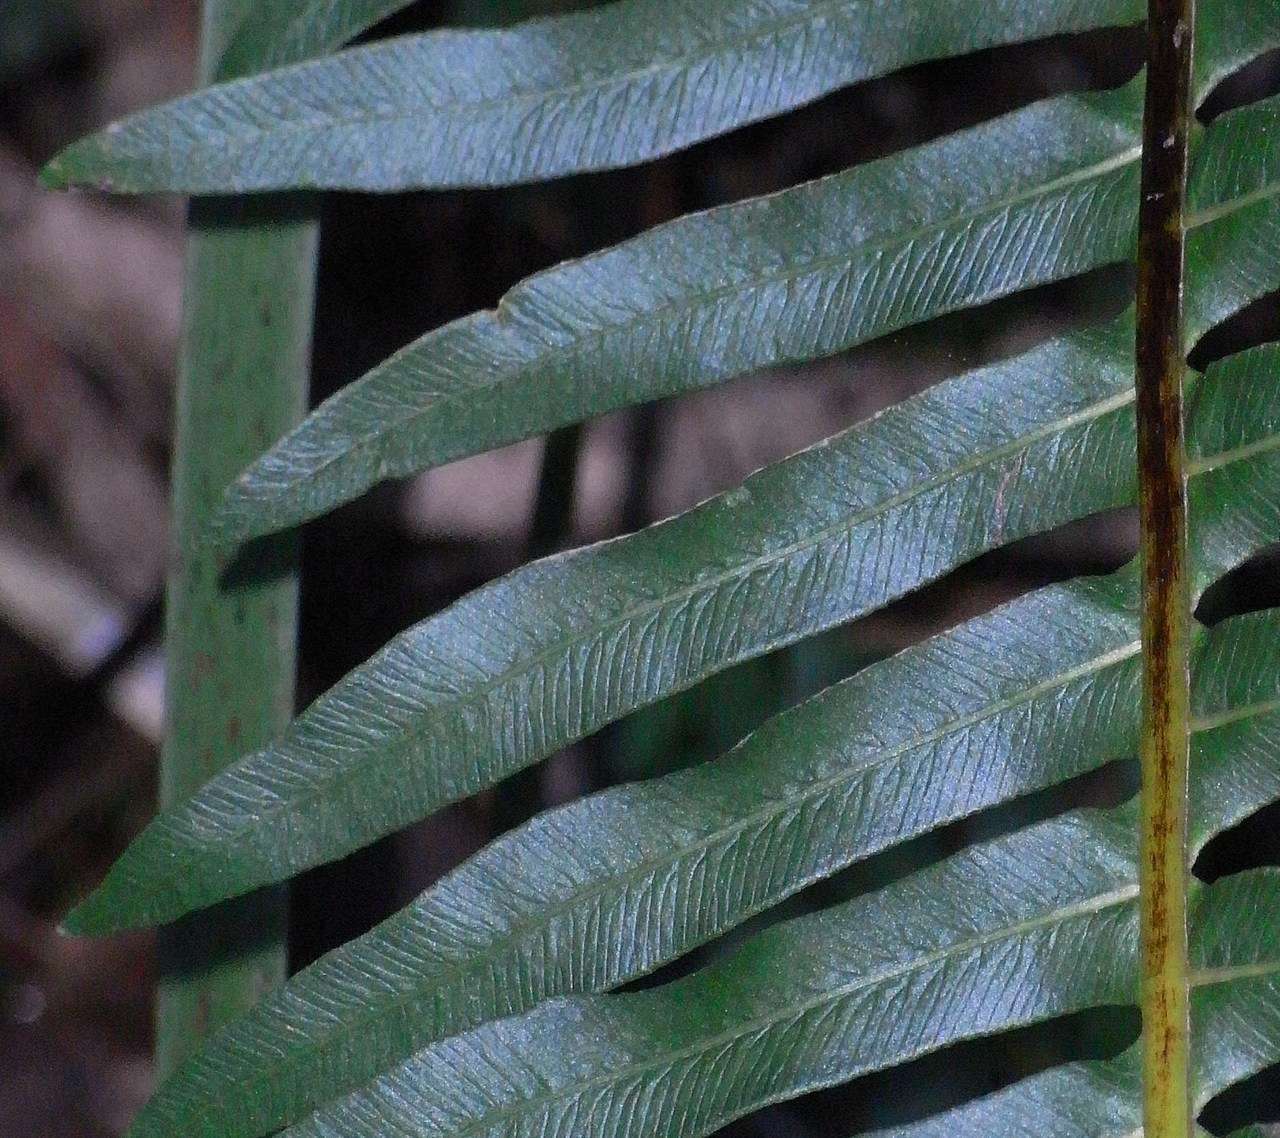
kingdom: Plantae
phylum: Tracheophyta
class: Polypodiopsida
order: Polypodiales
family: Blechnaceae
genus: Lomaria
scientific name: Lomaria nuda
